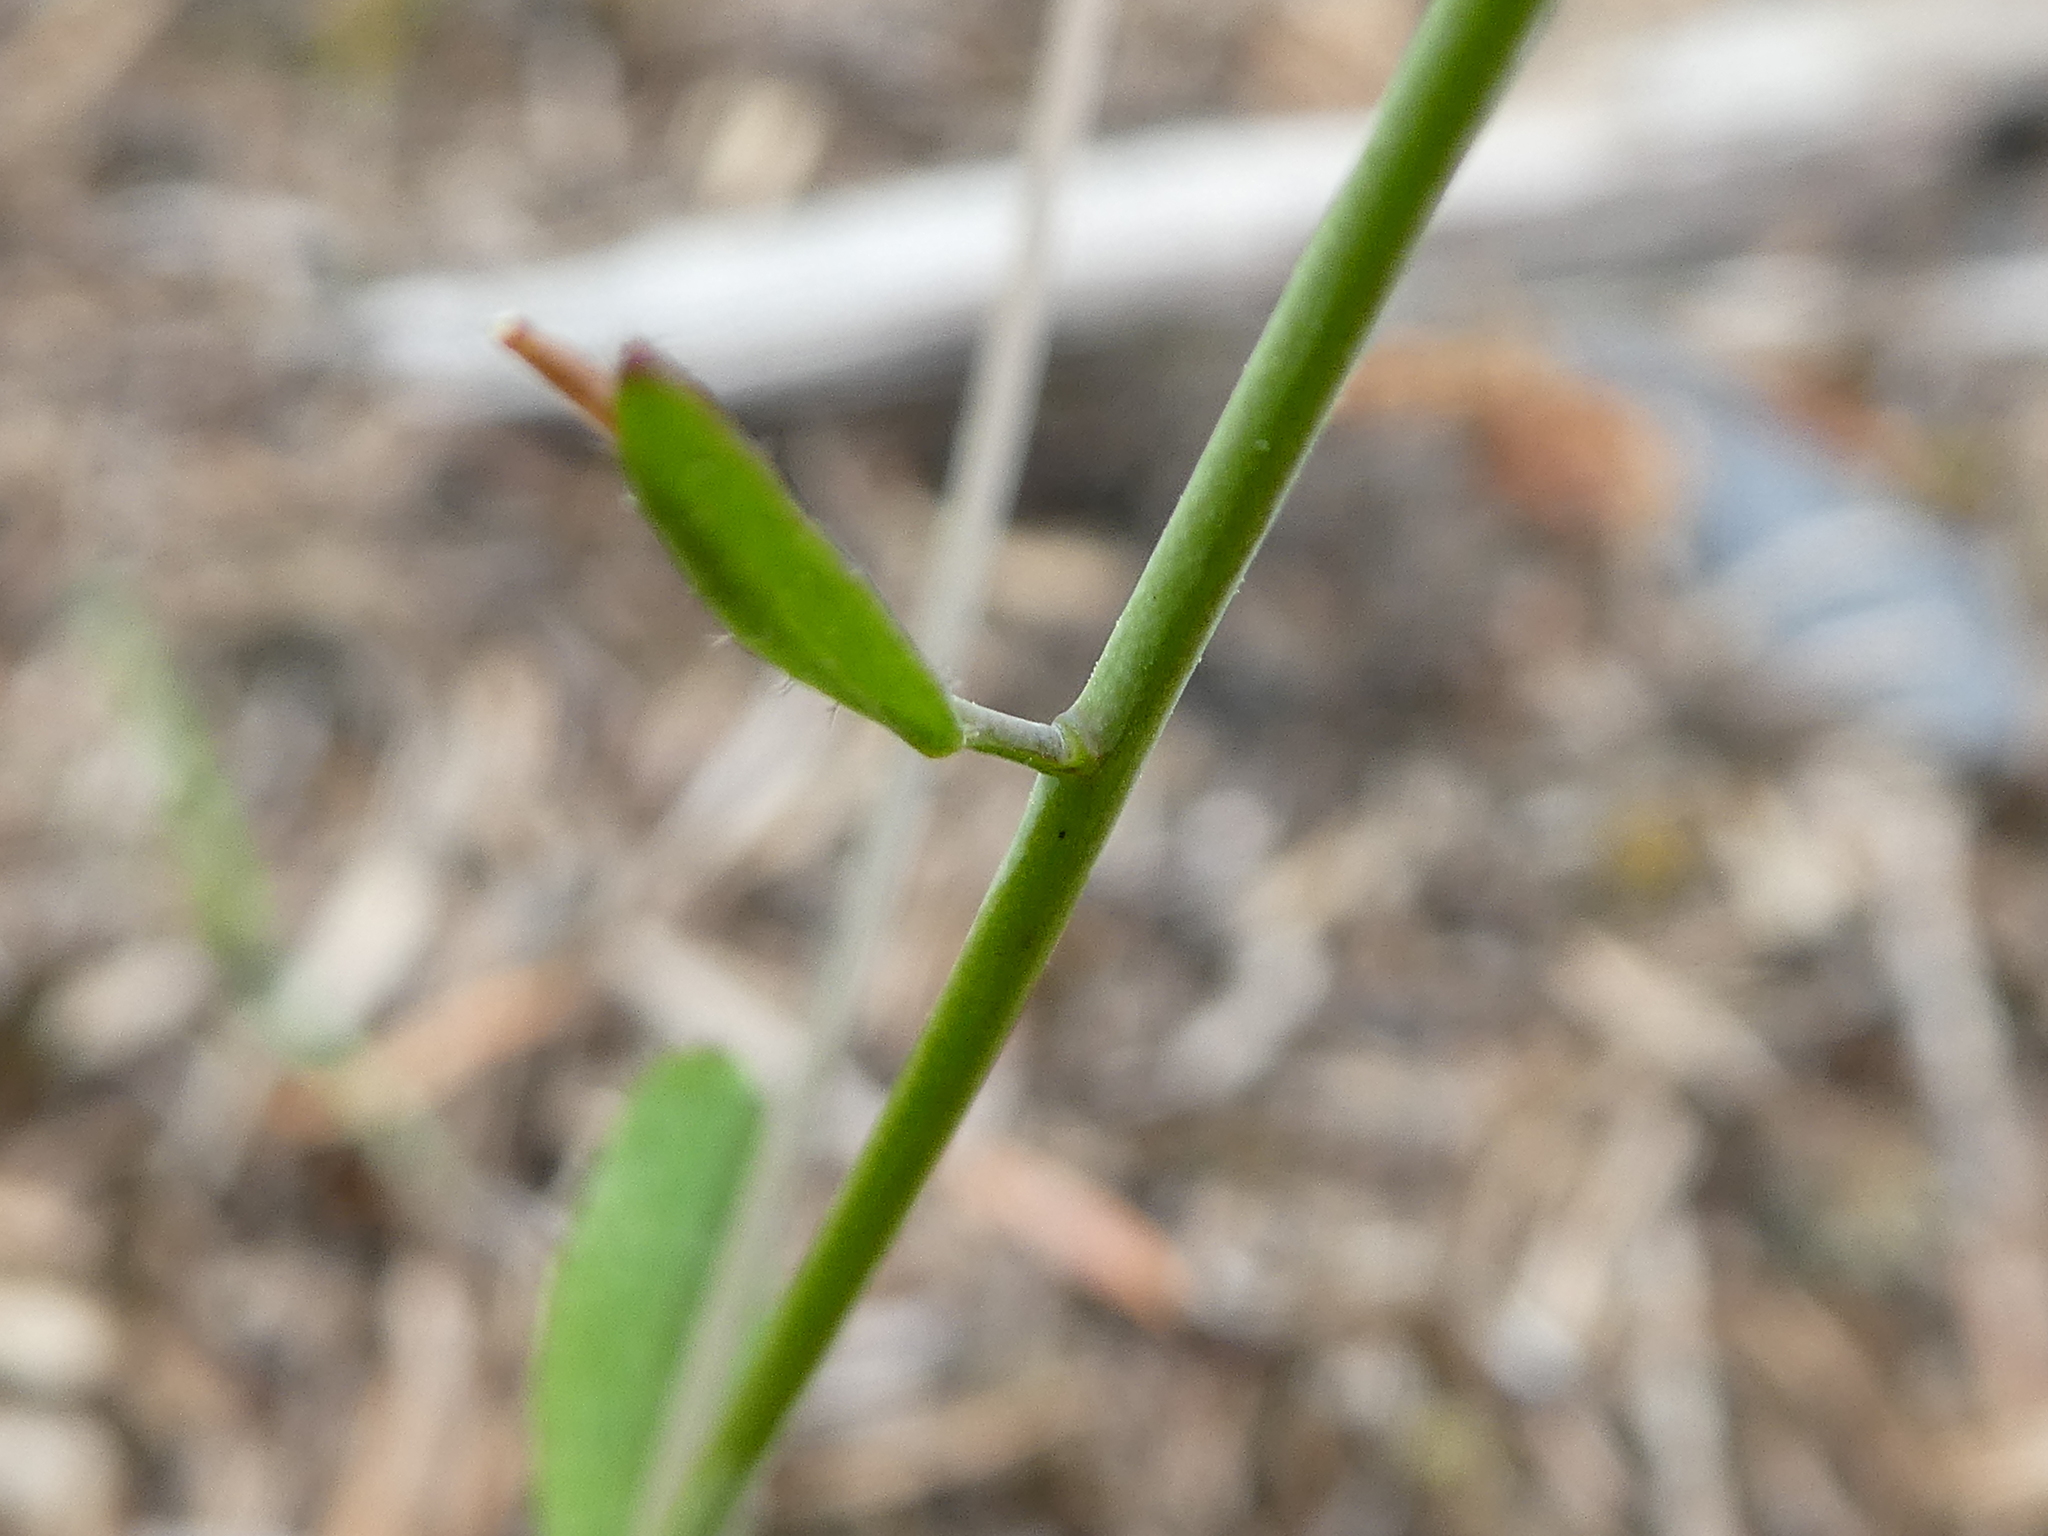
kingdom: Plantae
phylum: Tracheophyta
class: Magnoliopsida
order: Brassicales
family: Brassicaceae
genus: Arabidopsis
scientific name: Arabidopsis thaliana
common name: Thale cress
